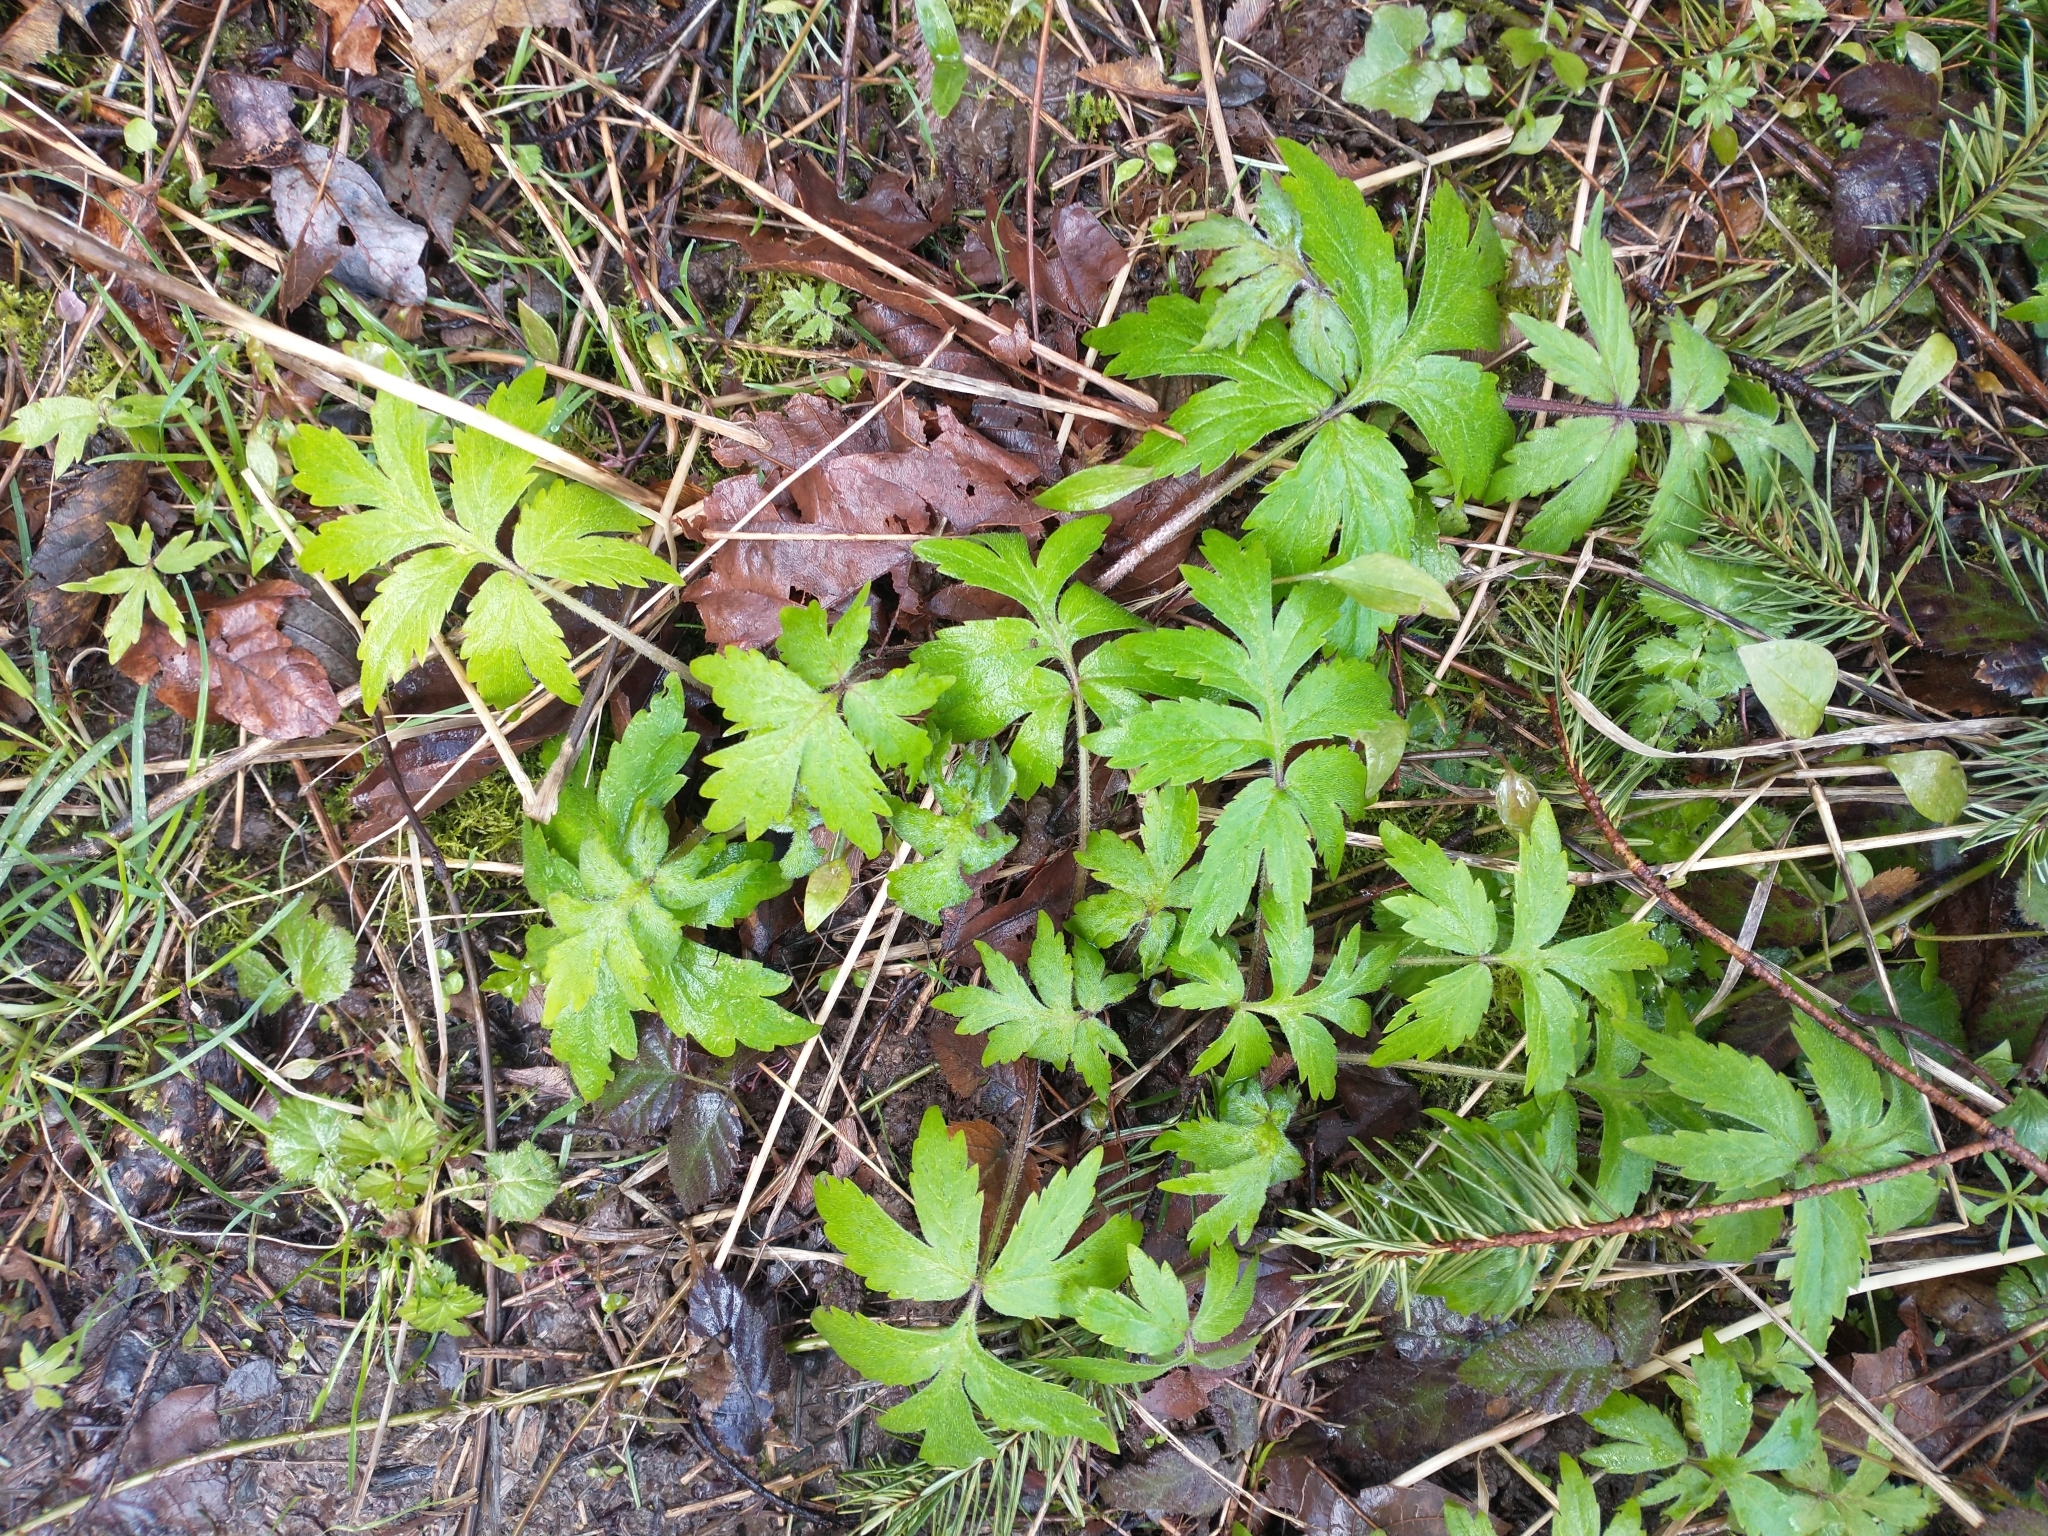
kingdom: Plantae
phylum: Tracheophyta
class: Magnoliopsida
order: Boraginales
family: Hydrophyllaceae
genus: Hydrophyllum
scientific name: Hydrophyllum tenuipes
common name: Pacific waterleaf
